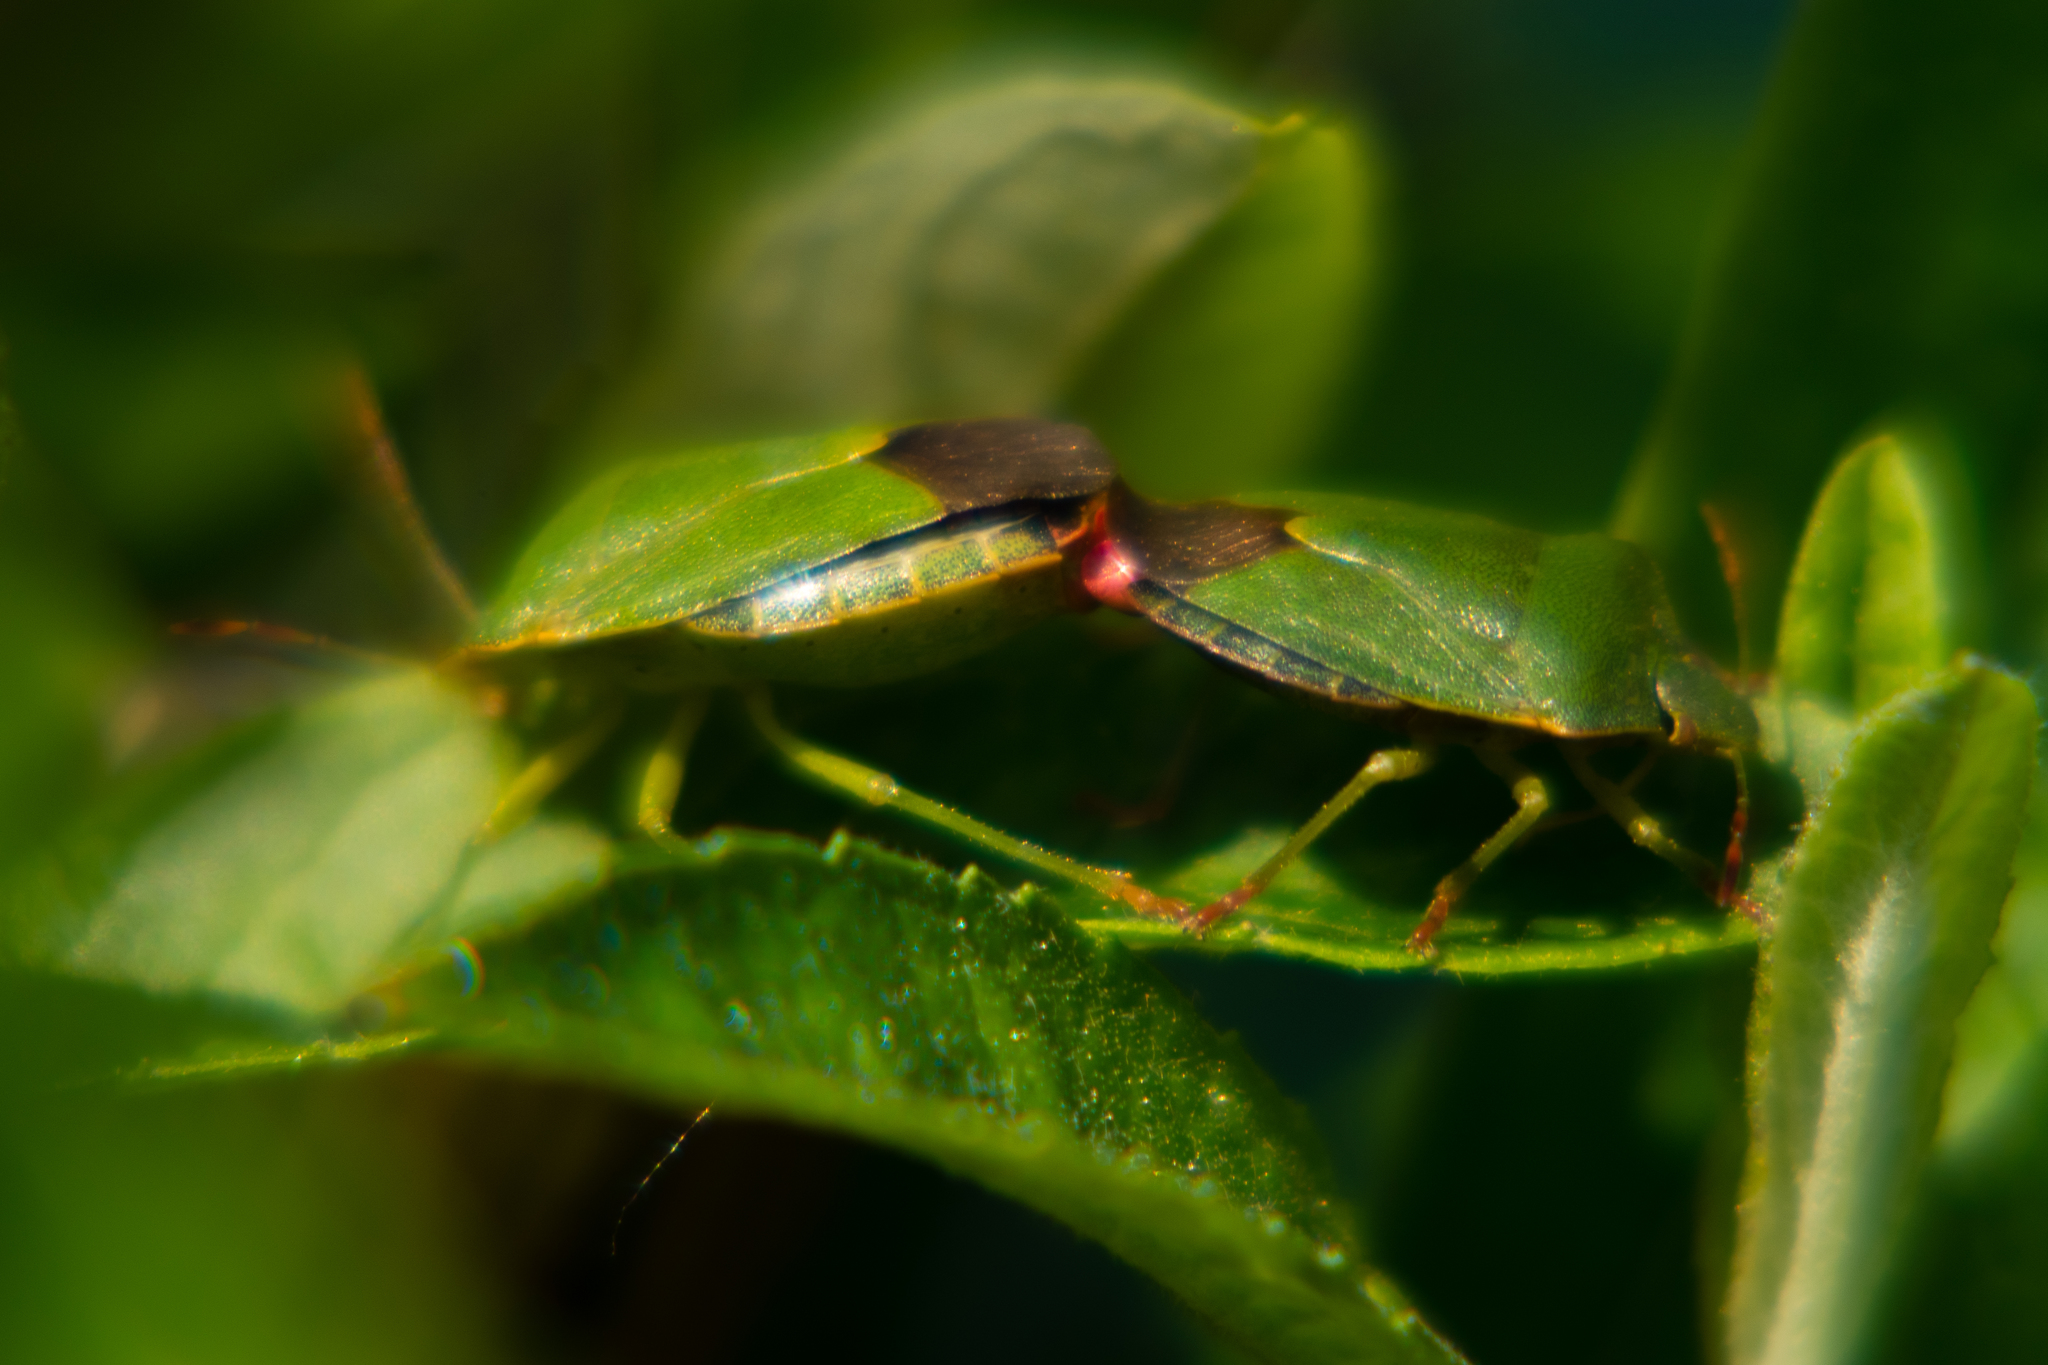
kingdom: Animalia
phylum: Arthropoda
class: Insecta
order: Hemiptera
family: Pentatomidae
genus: Palomena
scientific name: Palomena prasina
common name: Green shieldbug
